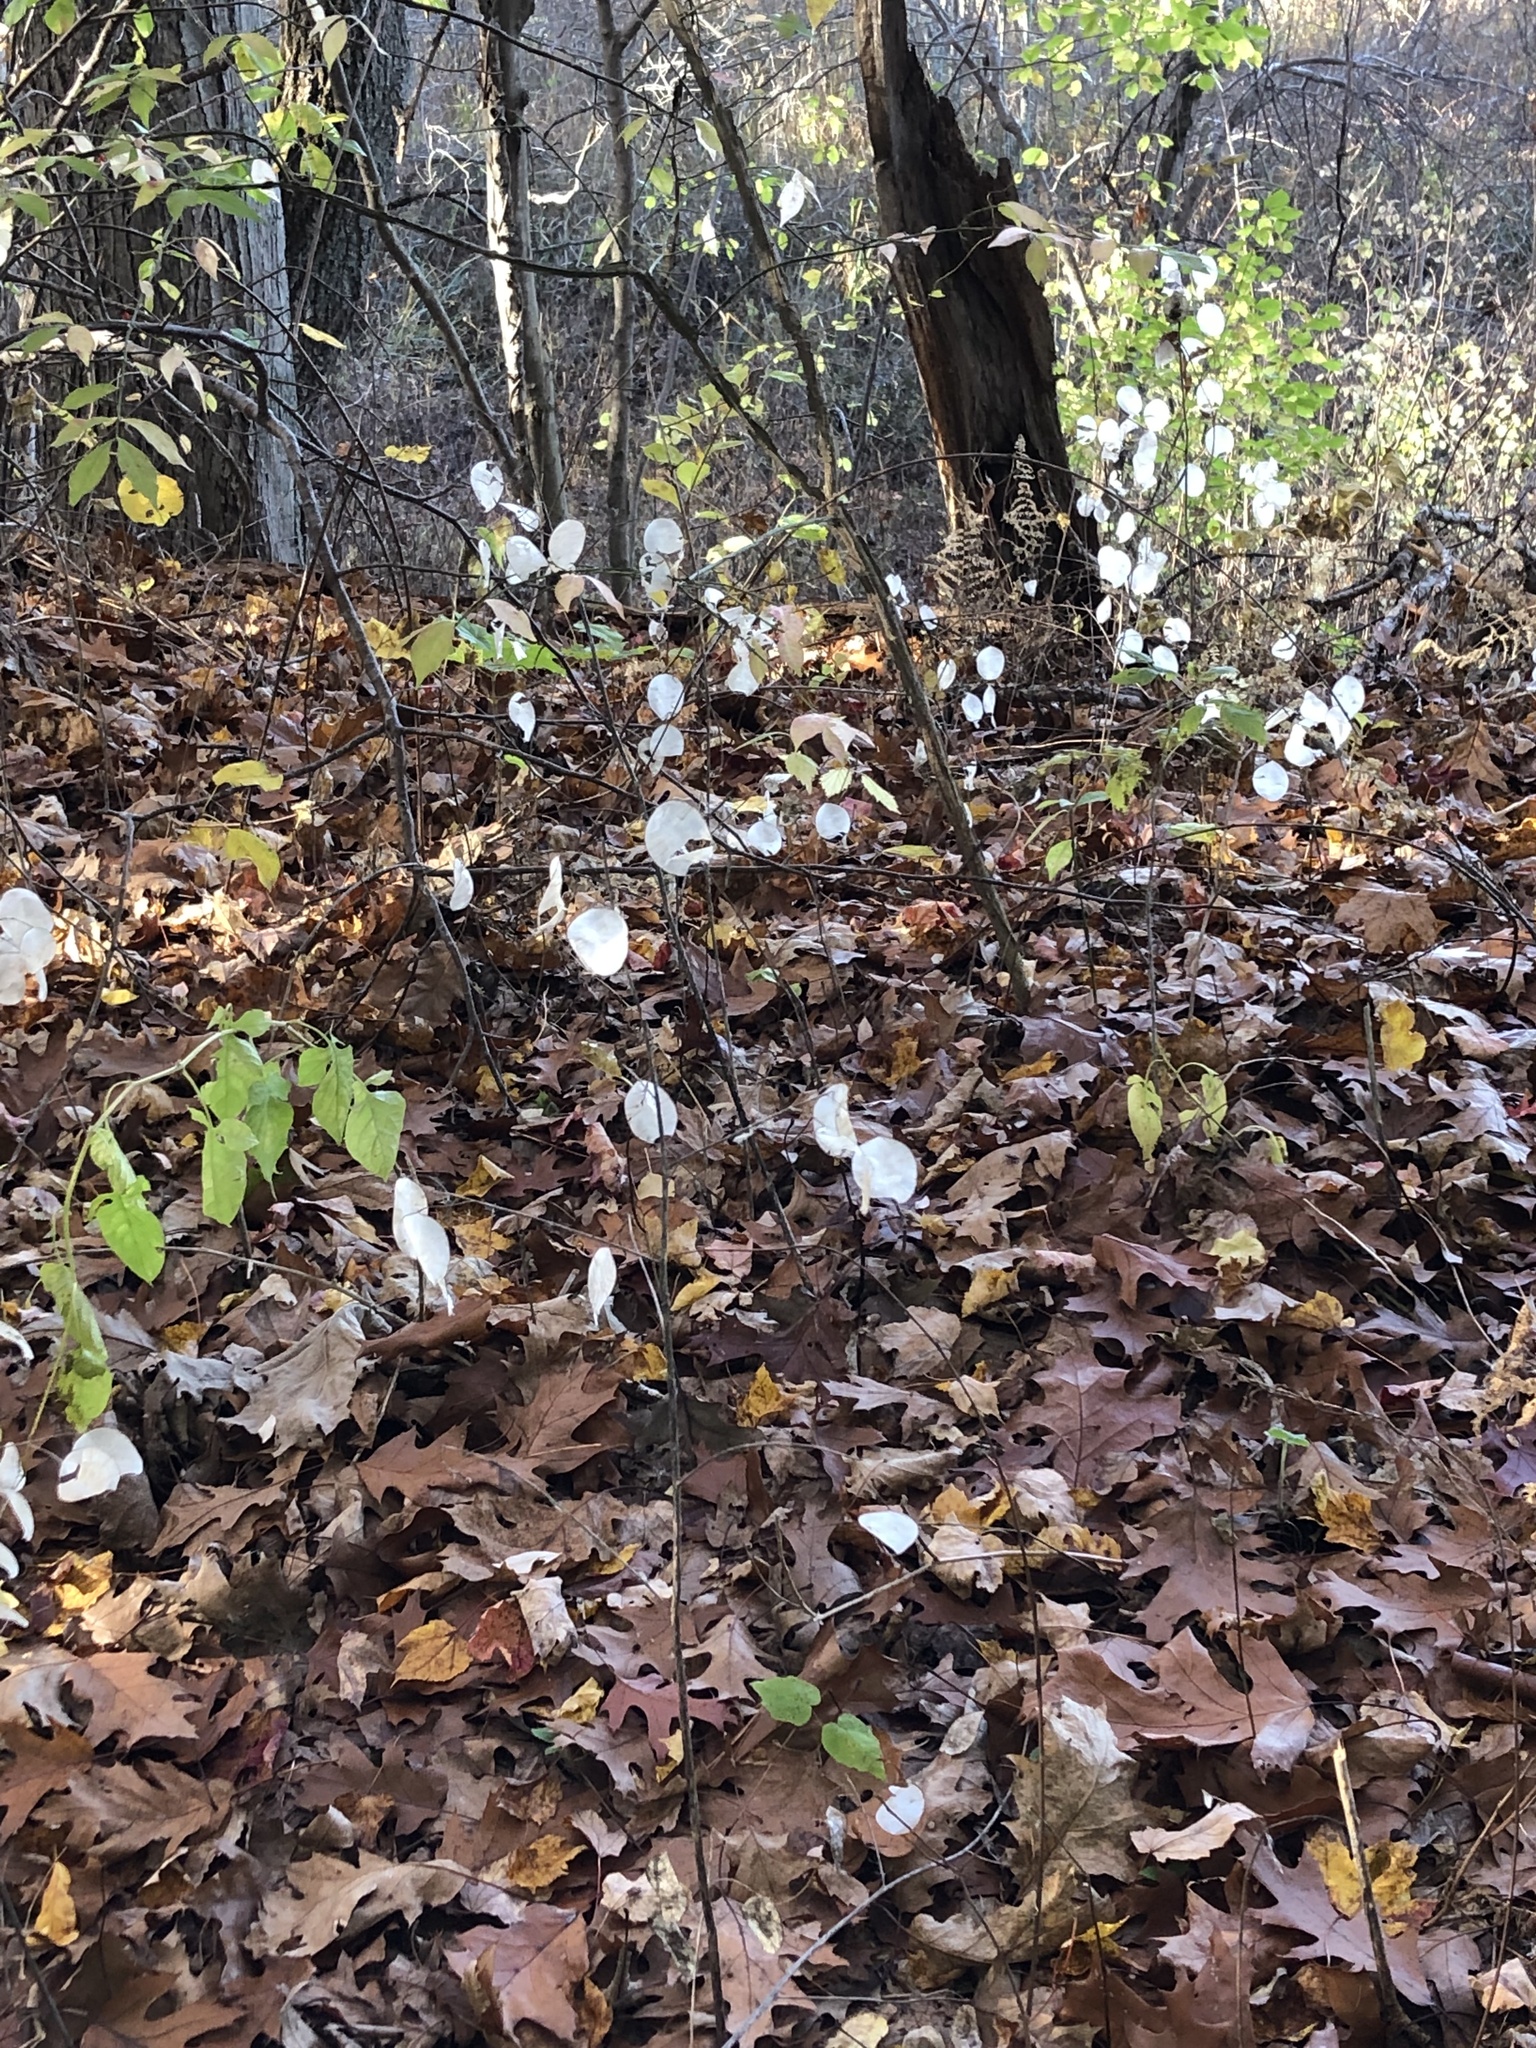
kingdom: Plantae
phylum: Tracheophyta
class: Magnoliopsida
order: Brassicales
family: Brassicaceae
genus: Lunaria
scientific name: Lunaria annua
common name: Honesty
